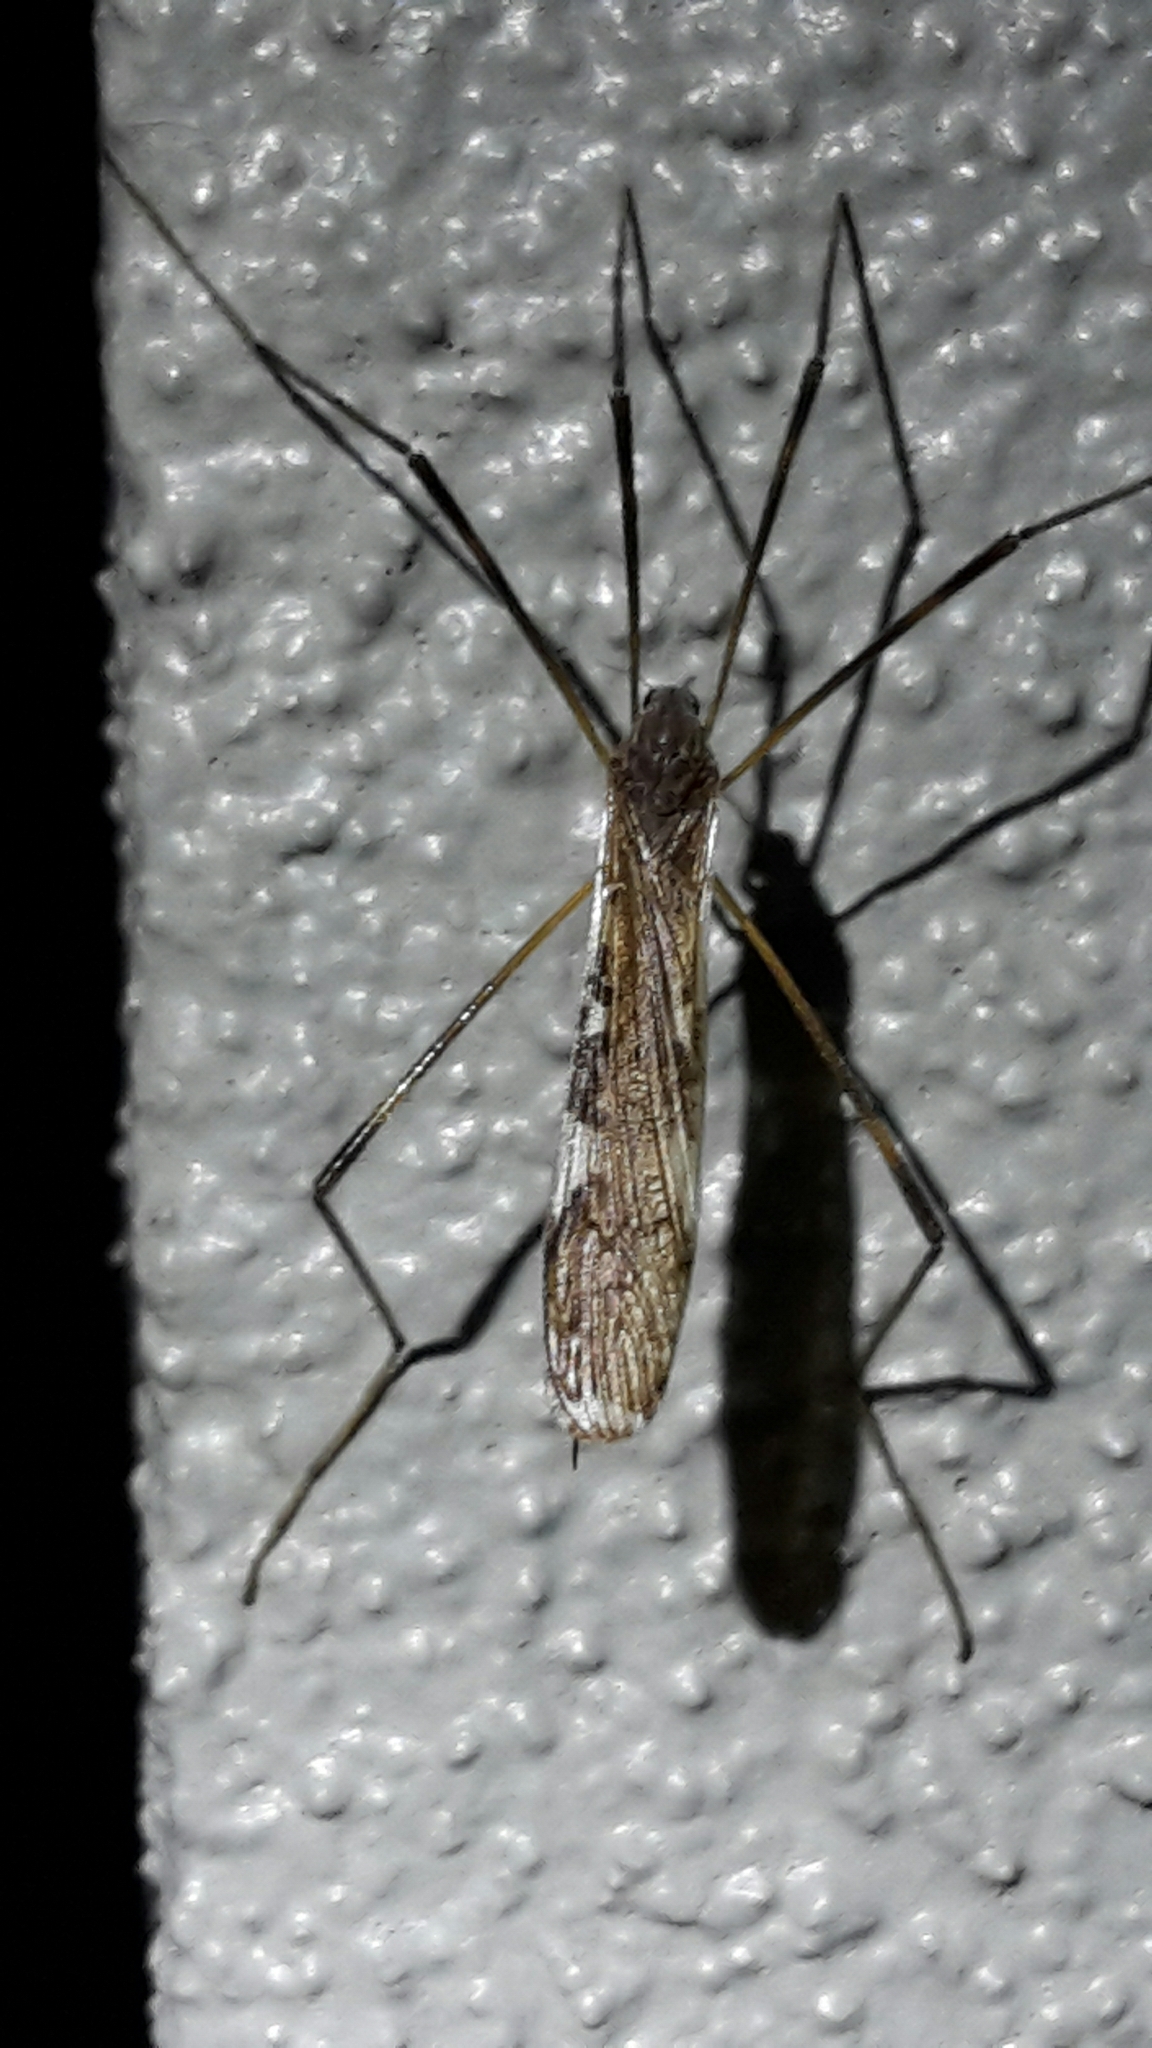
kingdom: Animalia
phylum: Arthropoda
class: Insecta
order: Diptera
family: Limoniidae
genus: Paralimnophila
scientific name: Paralimnophila skusei
